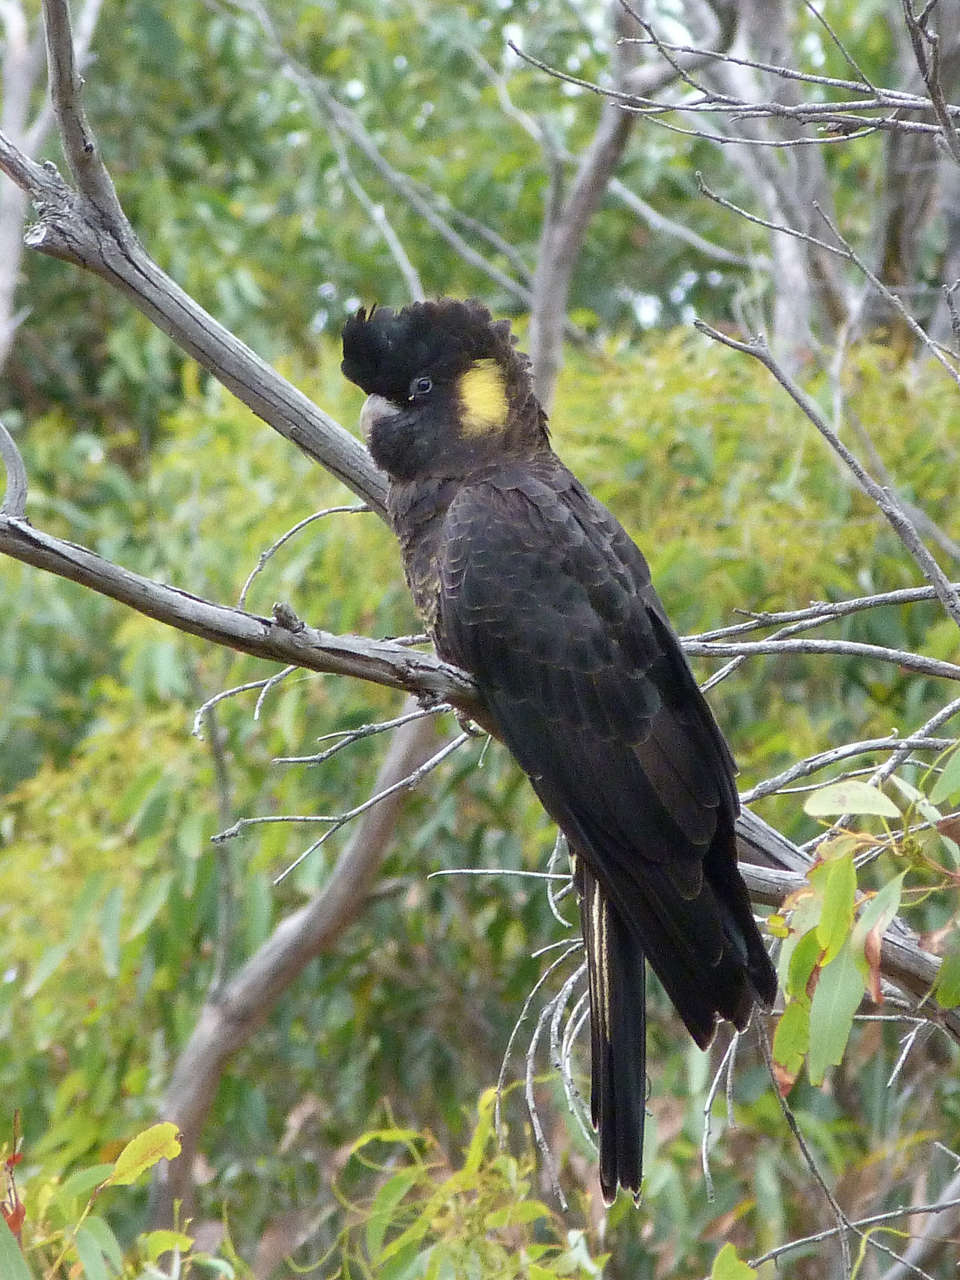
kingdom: Animalia
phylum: Chordata
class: Aves
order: Psittaciformes
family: Cacatuidae
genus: Zanda
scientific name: Zanda funerea
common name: Yellow-tailed black-cockatoo
